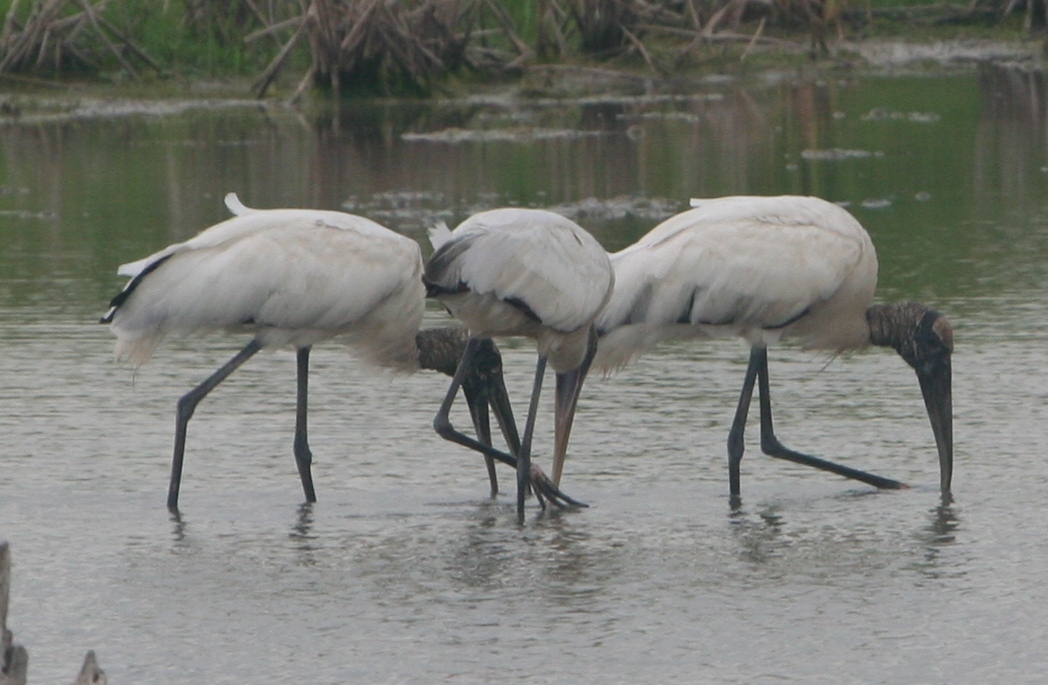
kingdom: Animalia
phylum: Chordata
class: Aves
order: Ciconiiformes
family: Ciconiidae
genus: Mycteria
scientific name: Mycteria americana
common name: Wood stork
